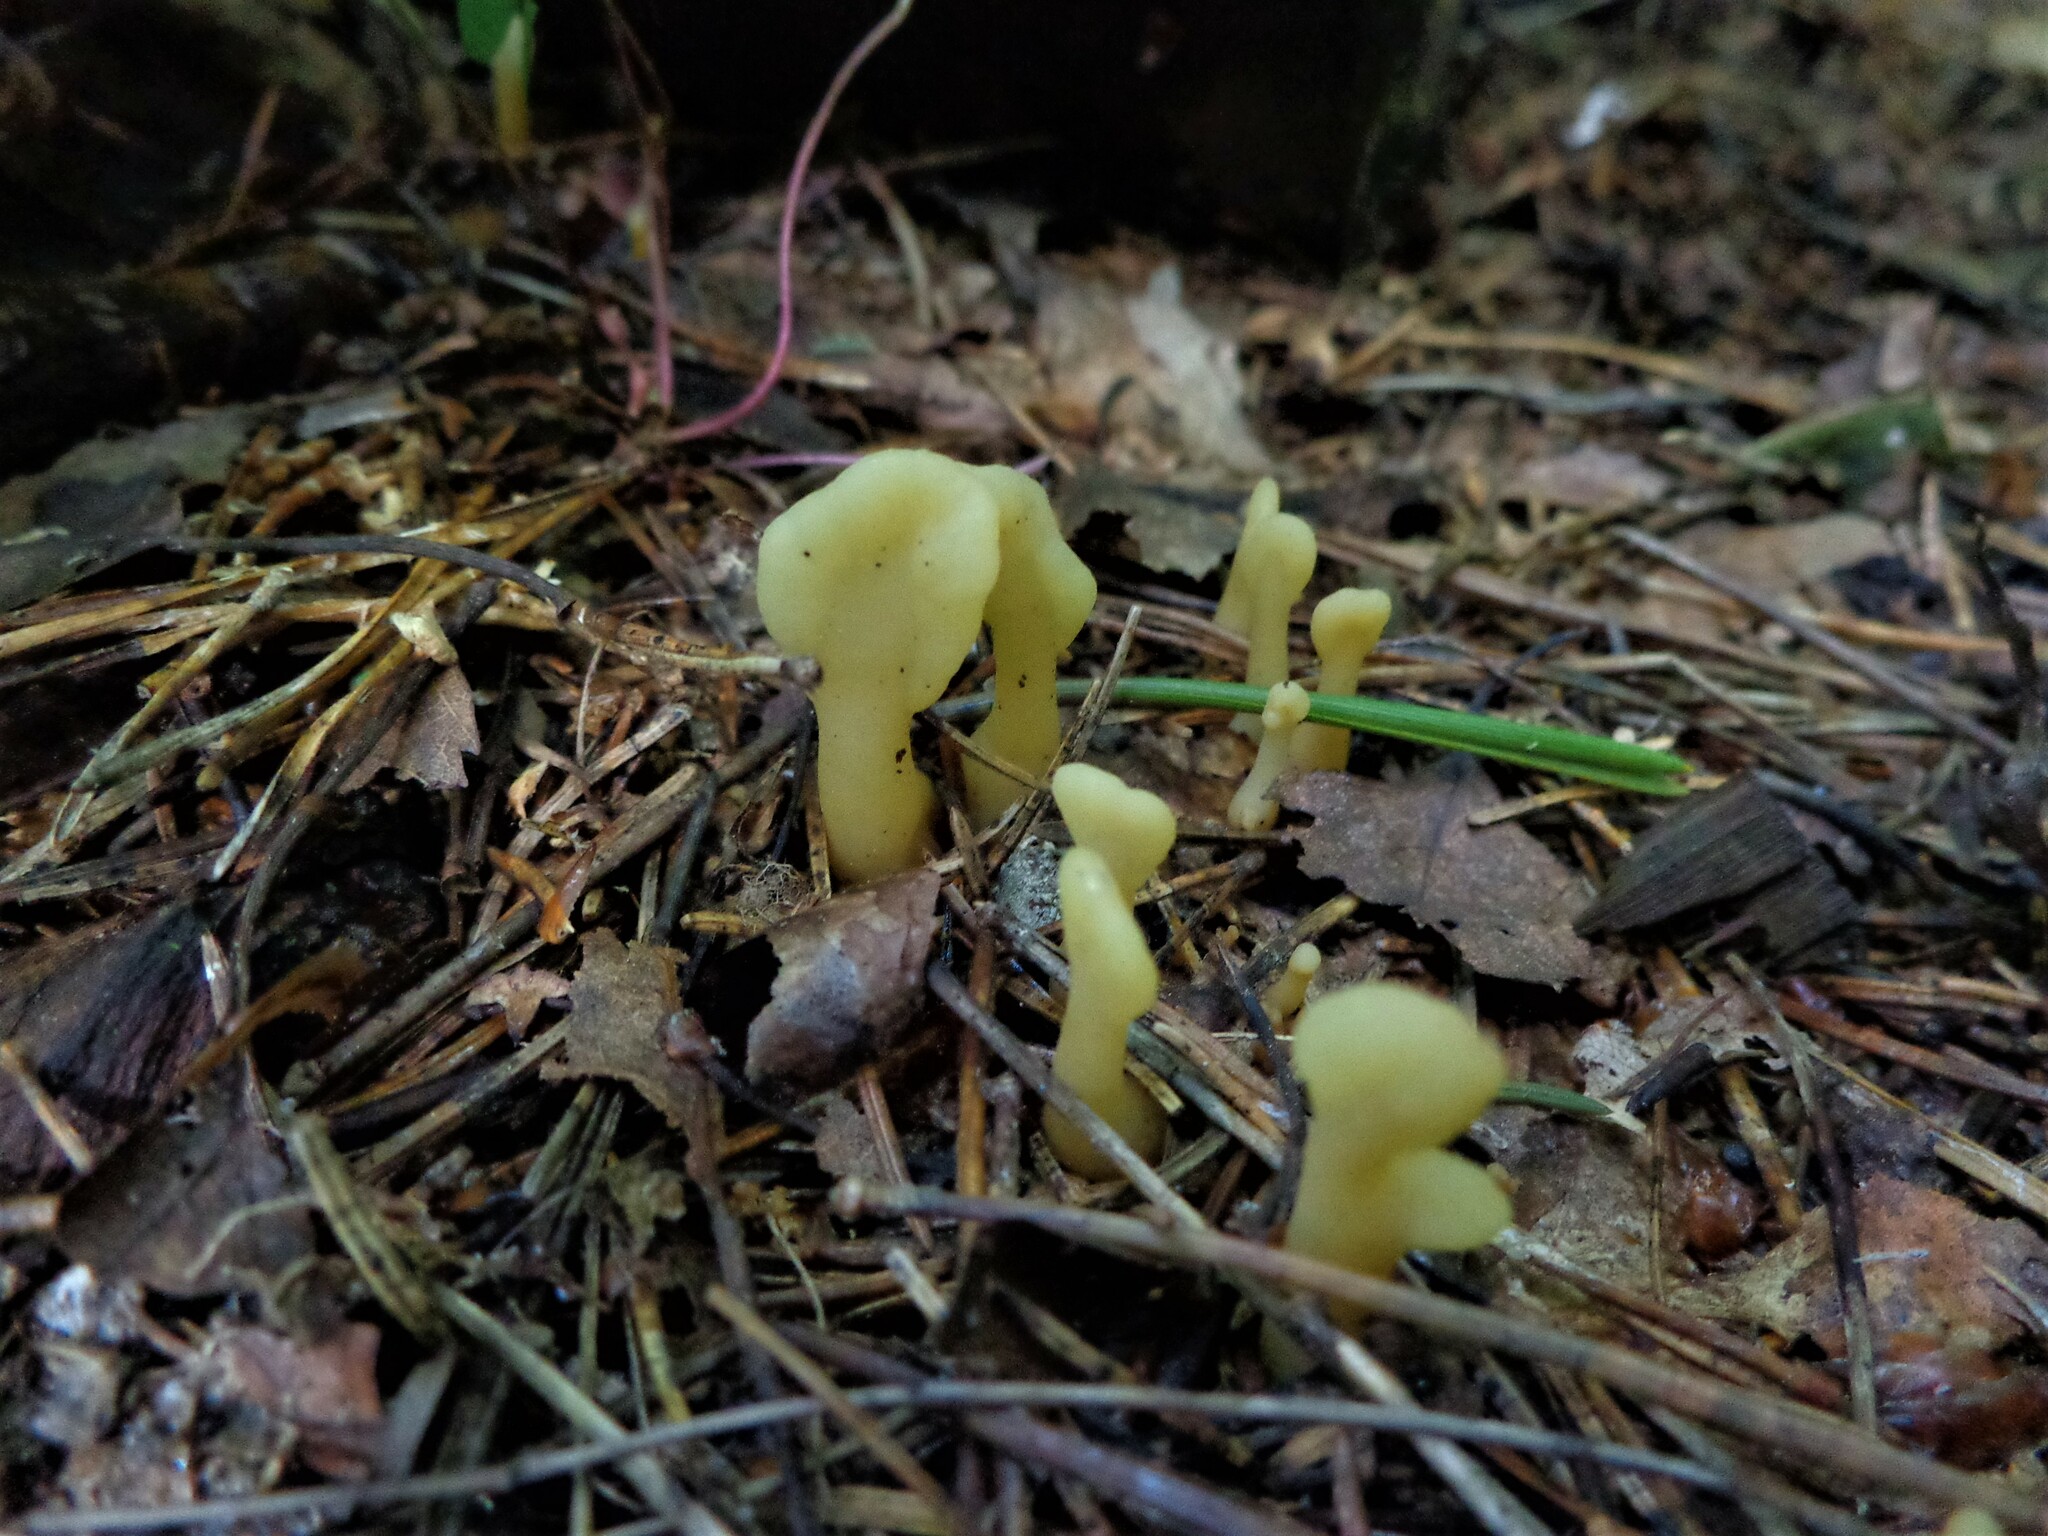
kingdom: Fungi
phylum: Ascomycota
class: Leotiomycetes
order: Rhytismatales
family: Cudoniaceae
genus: Spathularia
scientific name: Spathularia flavida
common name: Yellow fan
